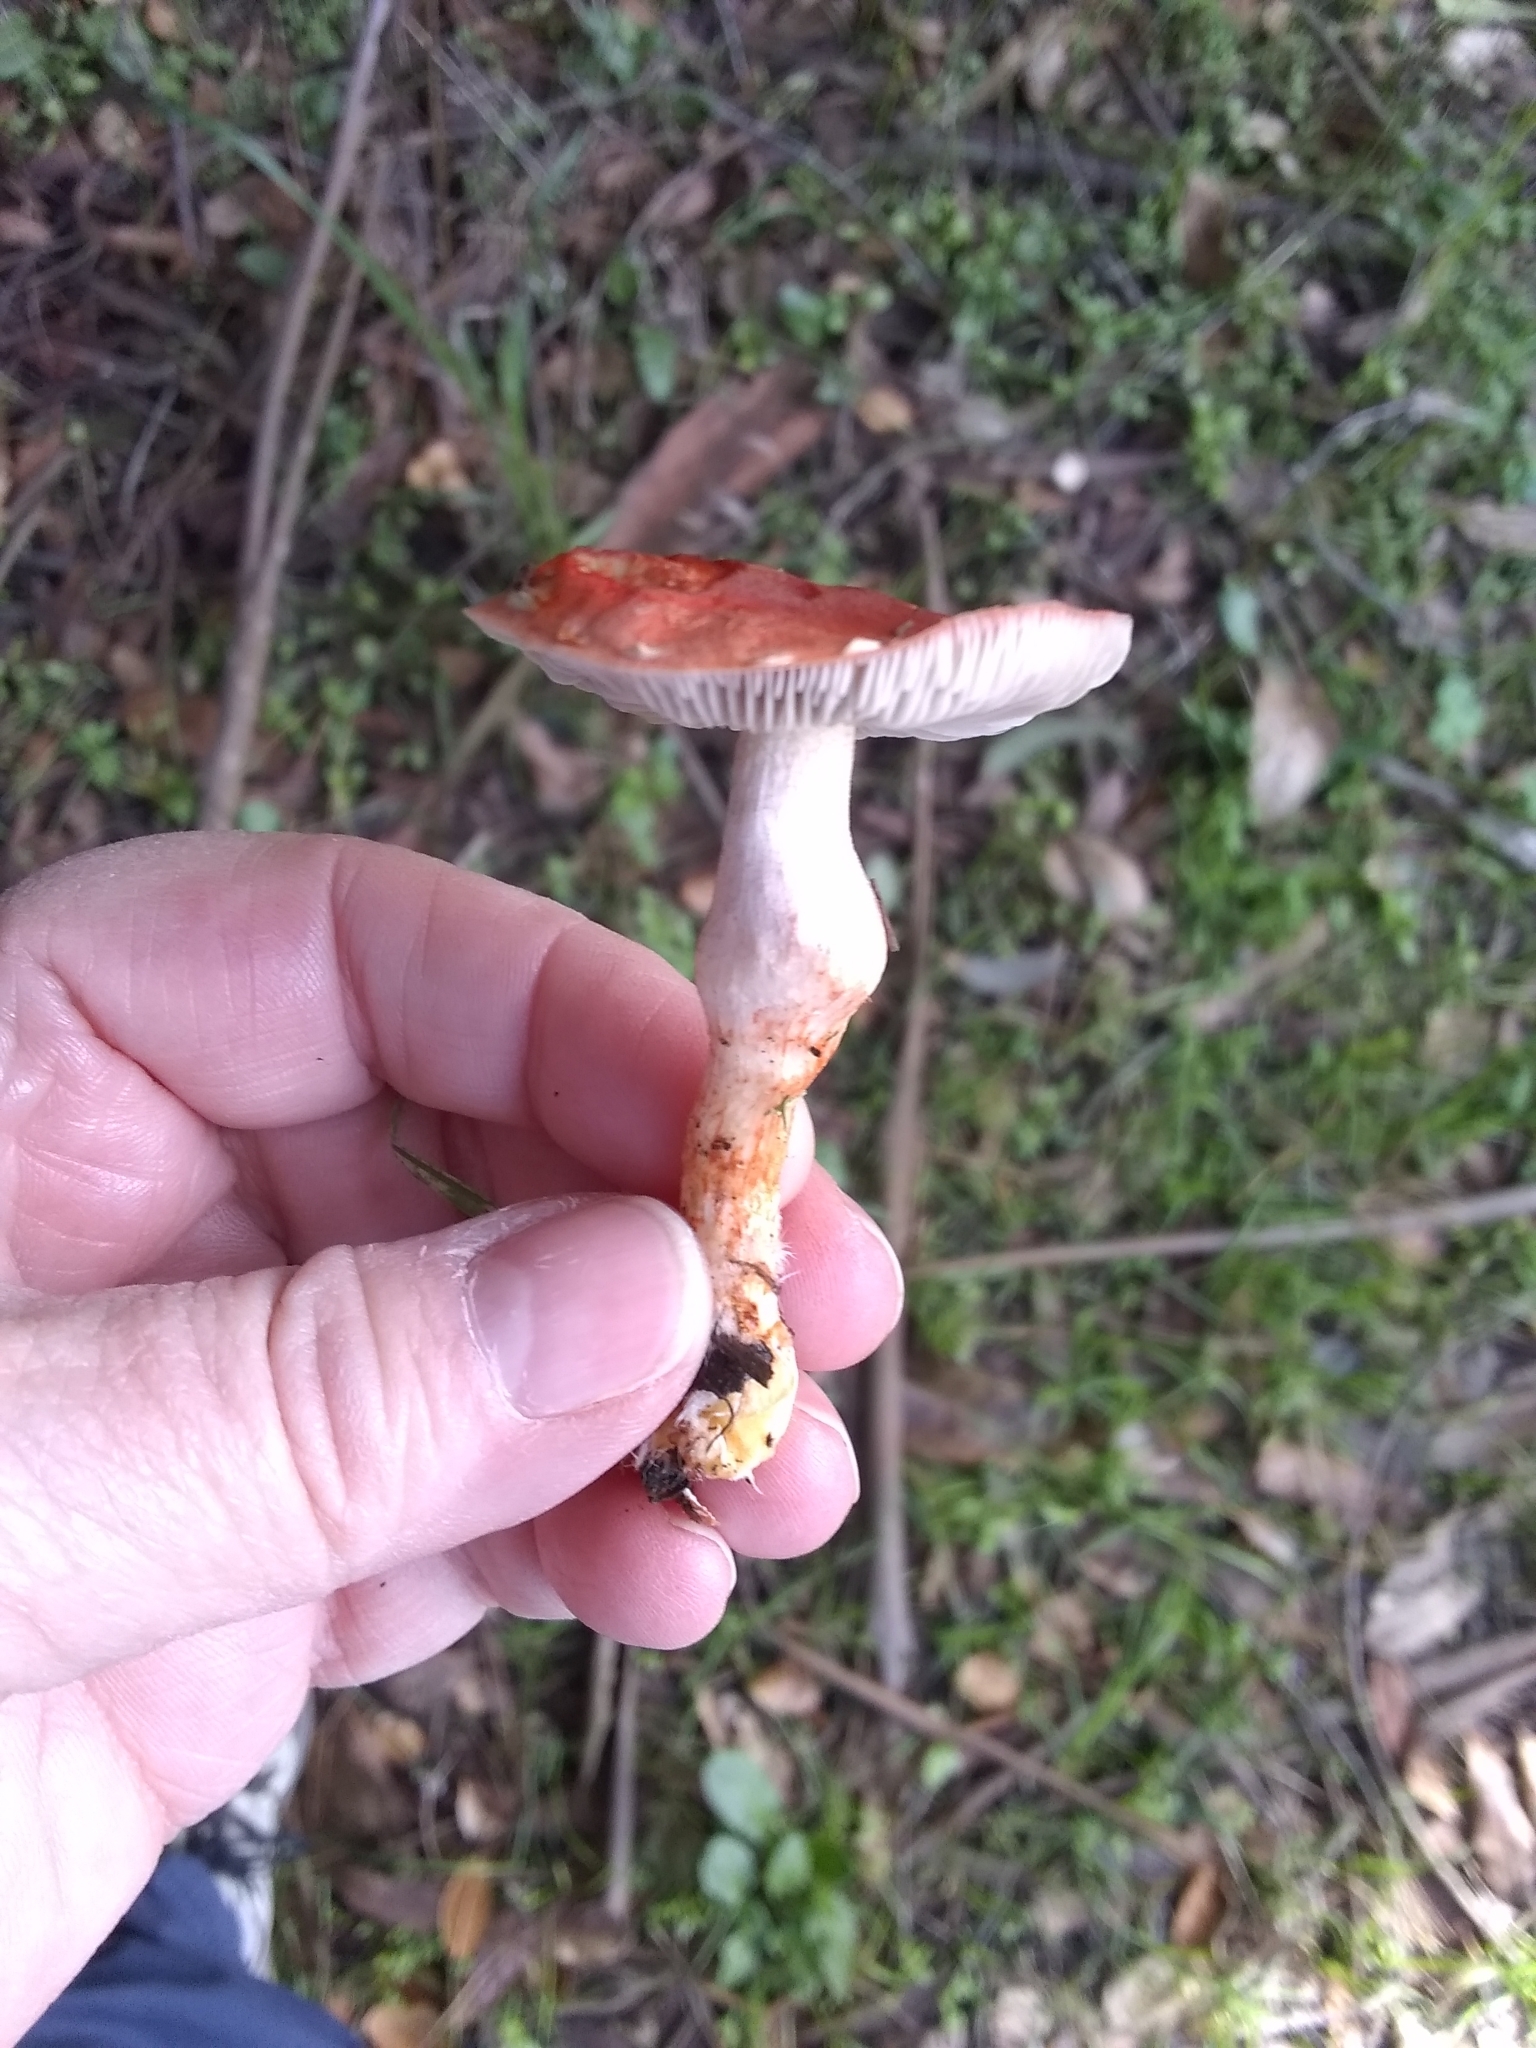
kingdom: Fungi
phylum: Basidiomycota
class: Agaricomycetes
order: Agaricales
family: Strophariaceae
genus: Leratiomyces
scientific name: Leratiomyces ceres
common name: Redlead roundhead
